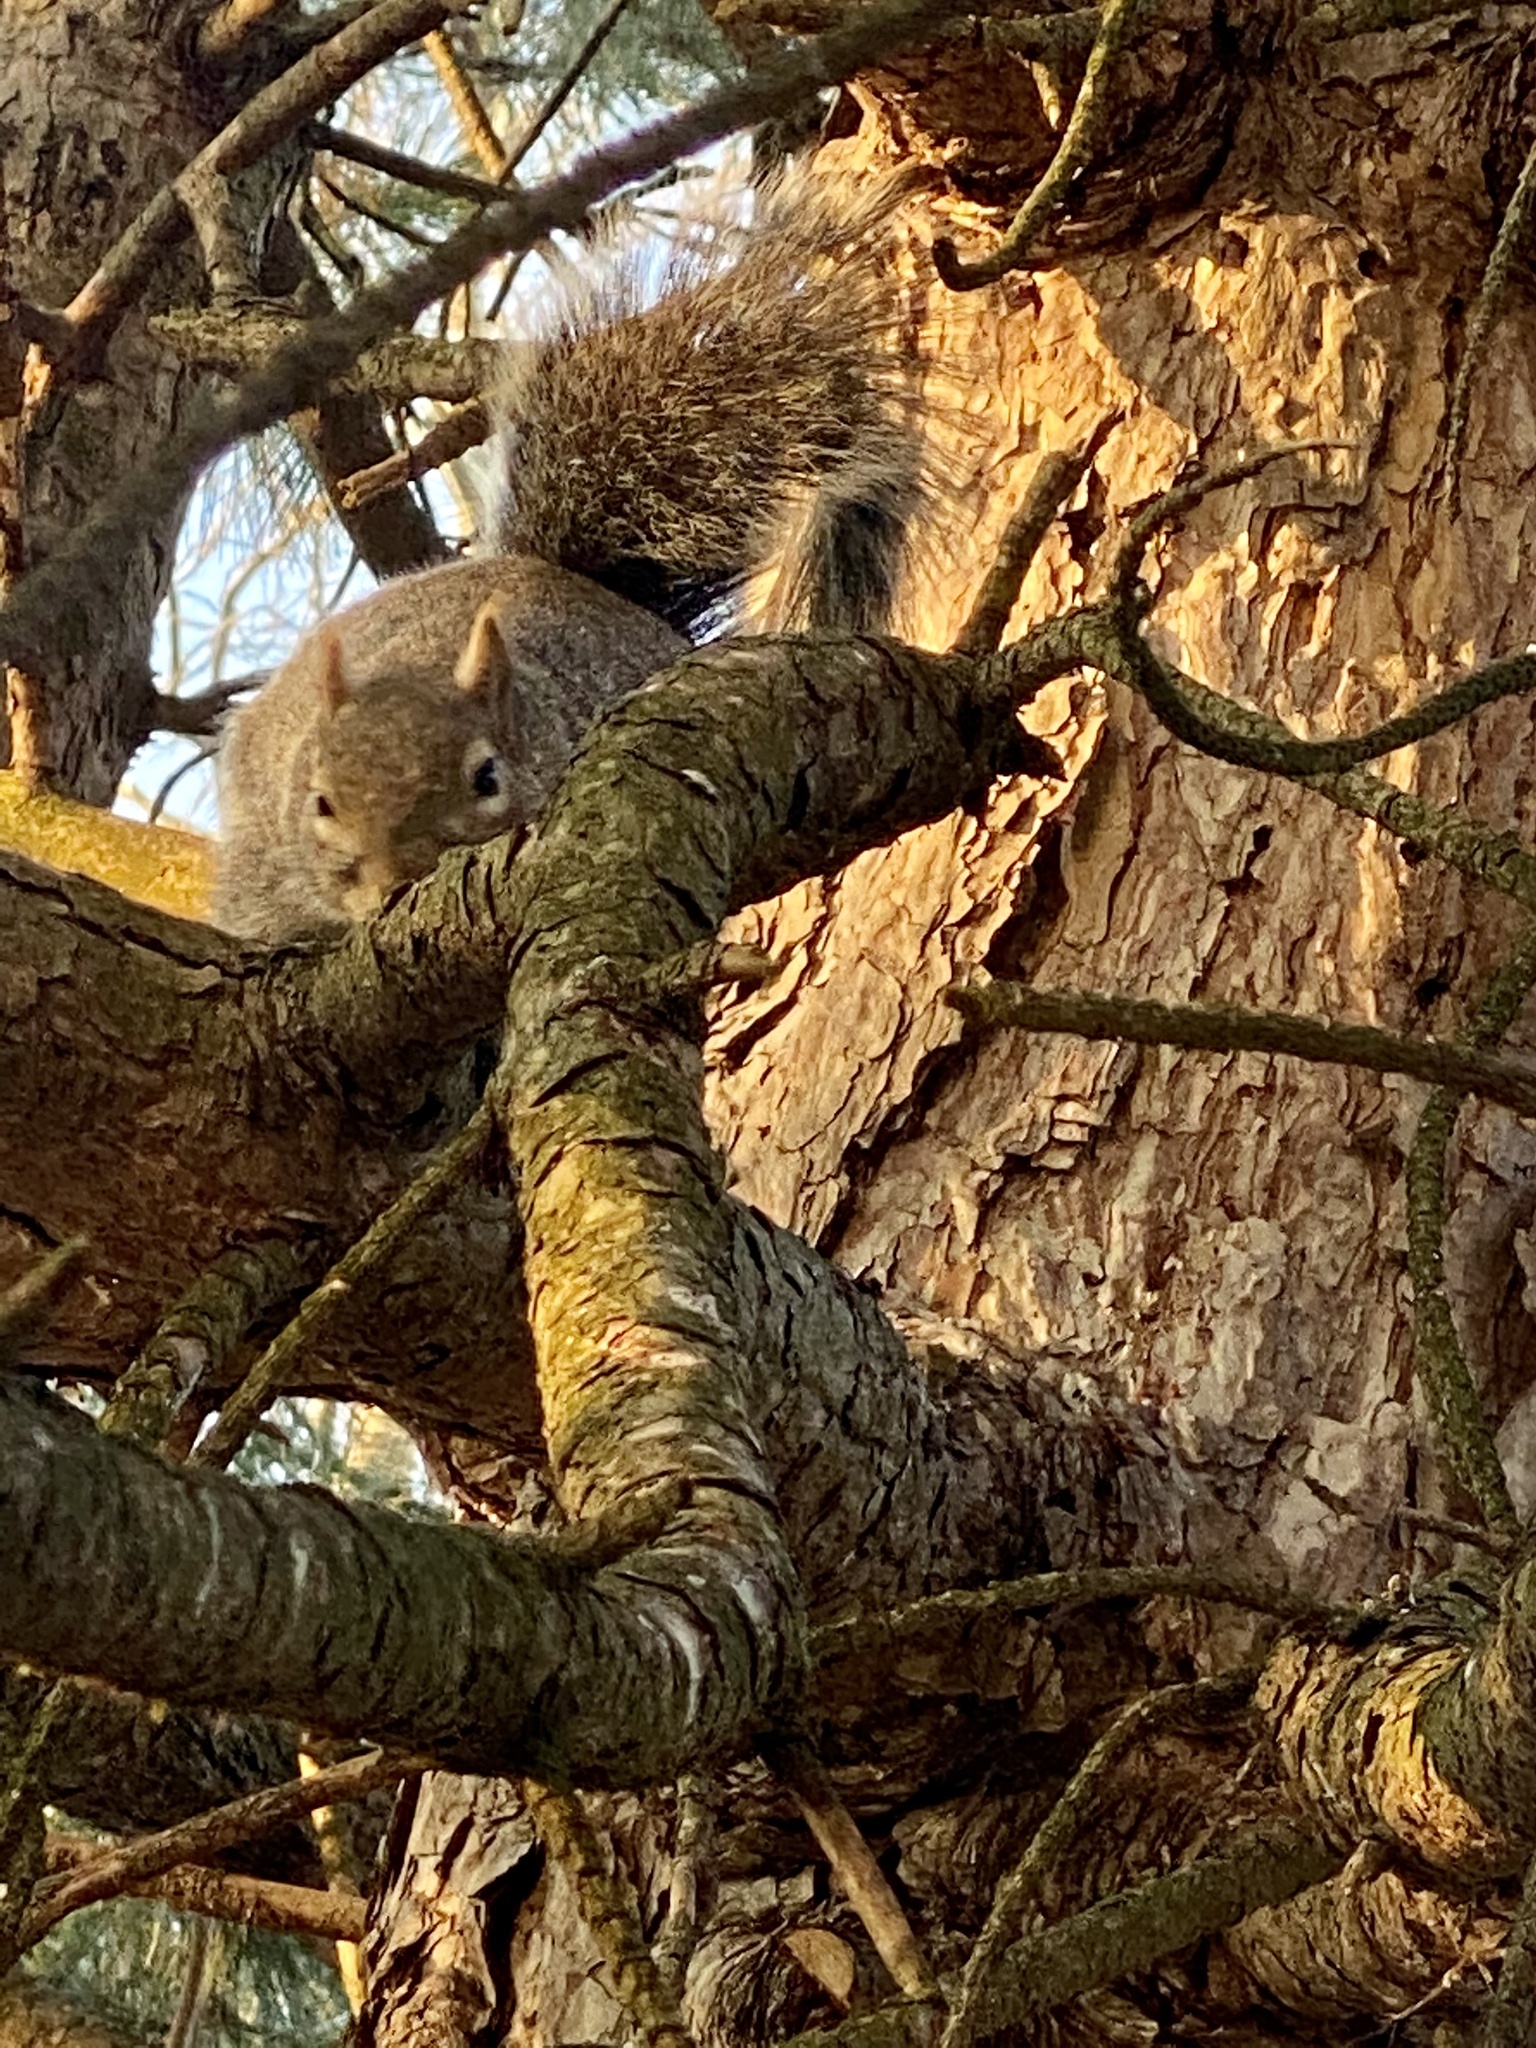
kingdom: Animalia
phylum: Chordata
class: Mammalia
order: Rodentia
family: Sciuridae
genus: Sciurus
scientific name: Sciurus carolinensis
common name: Eastern gray squirrel
